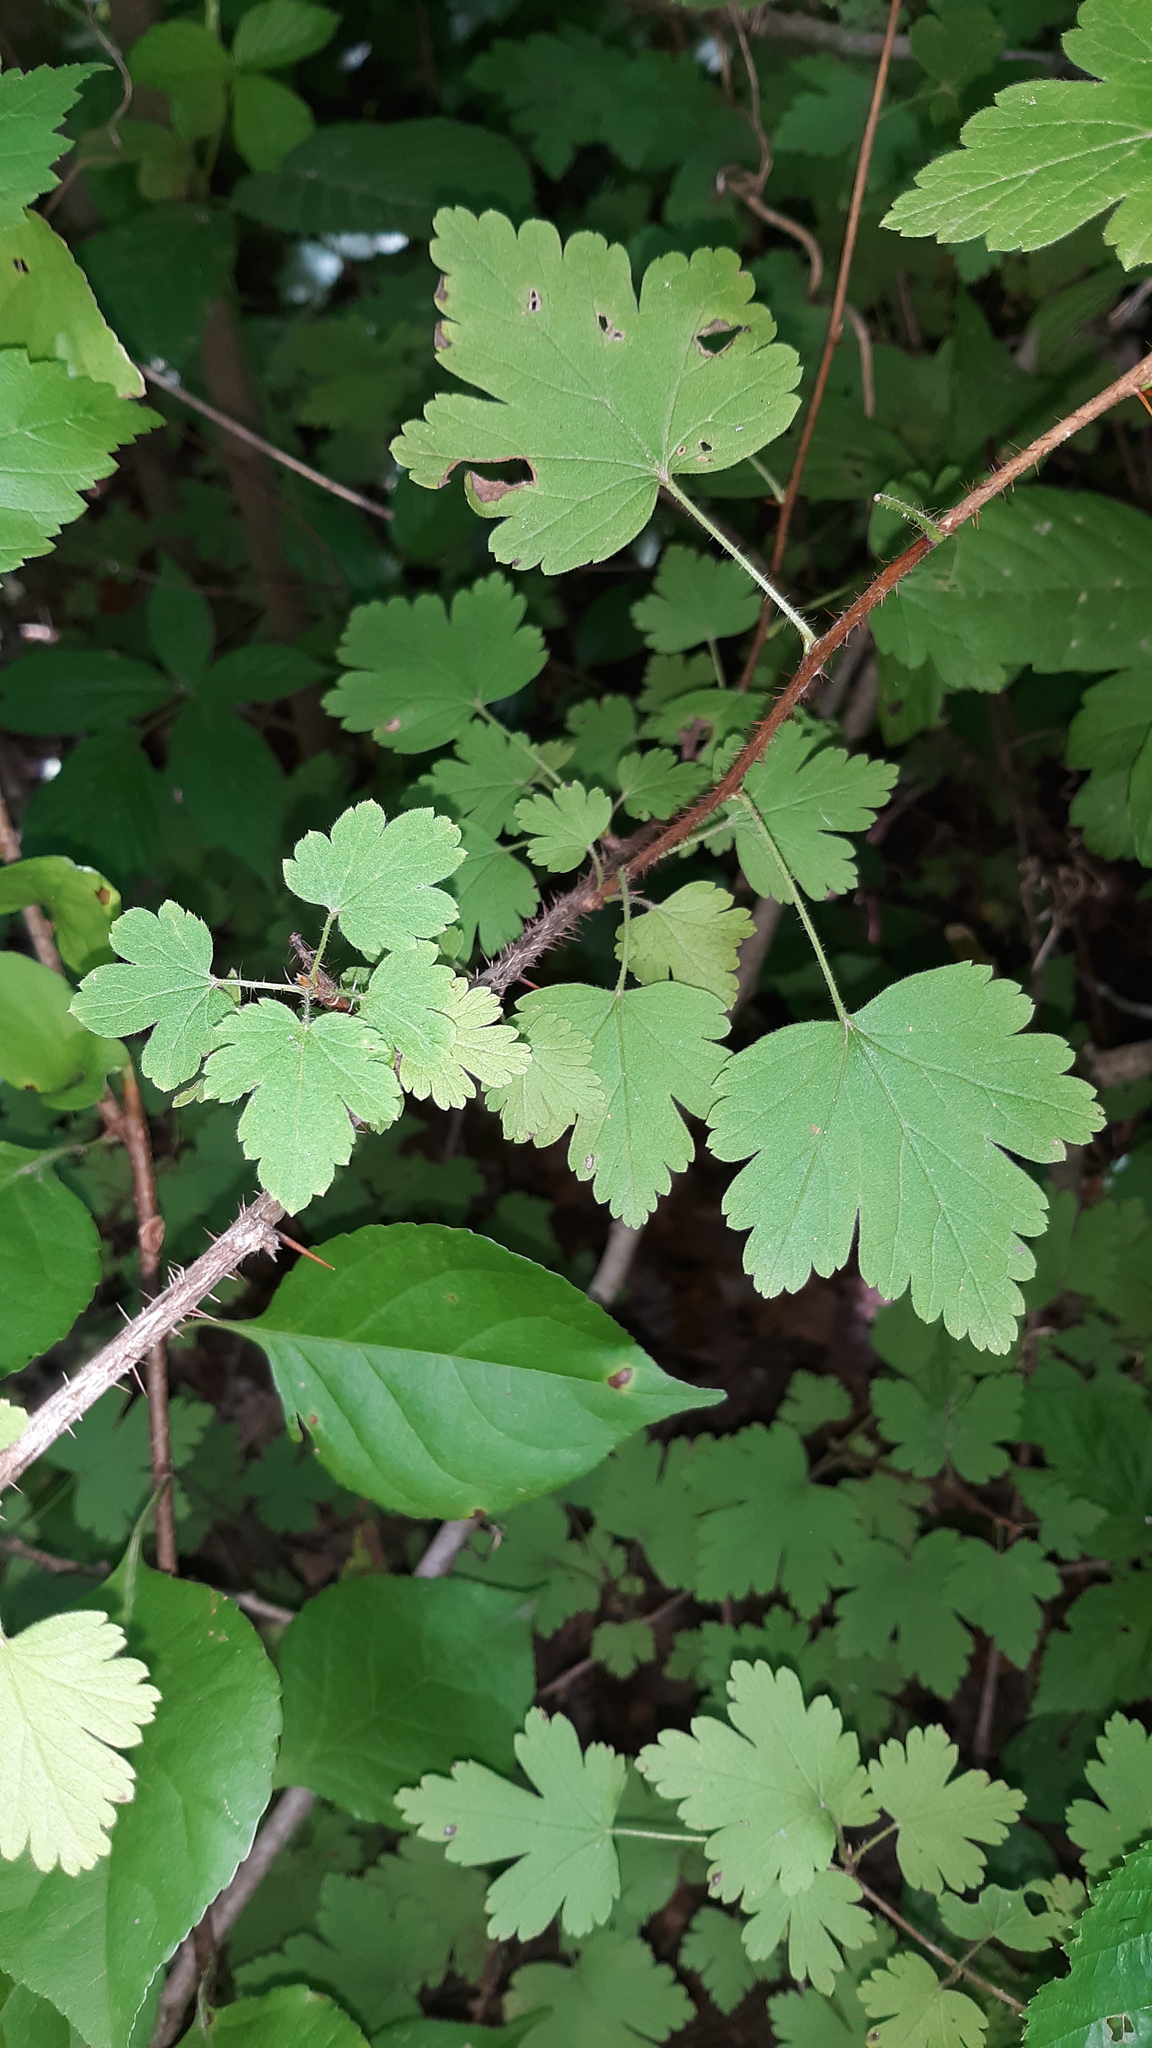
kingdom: Plantae
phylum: Tracheophyta
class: Magnoliopsida
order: Saxifragales
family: Grossulariaceae
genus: Ribes
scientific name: Ribes cynosbati
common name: American gooseberry
